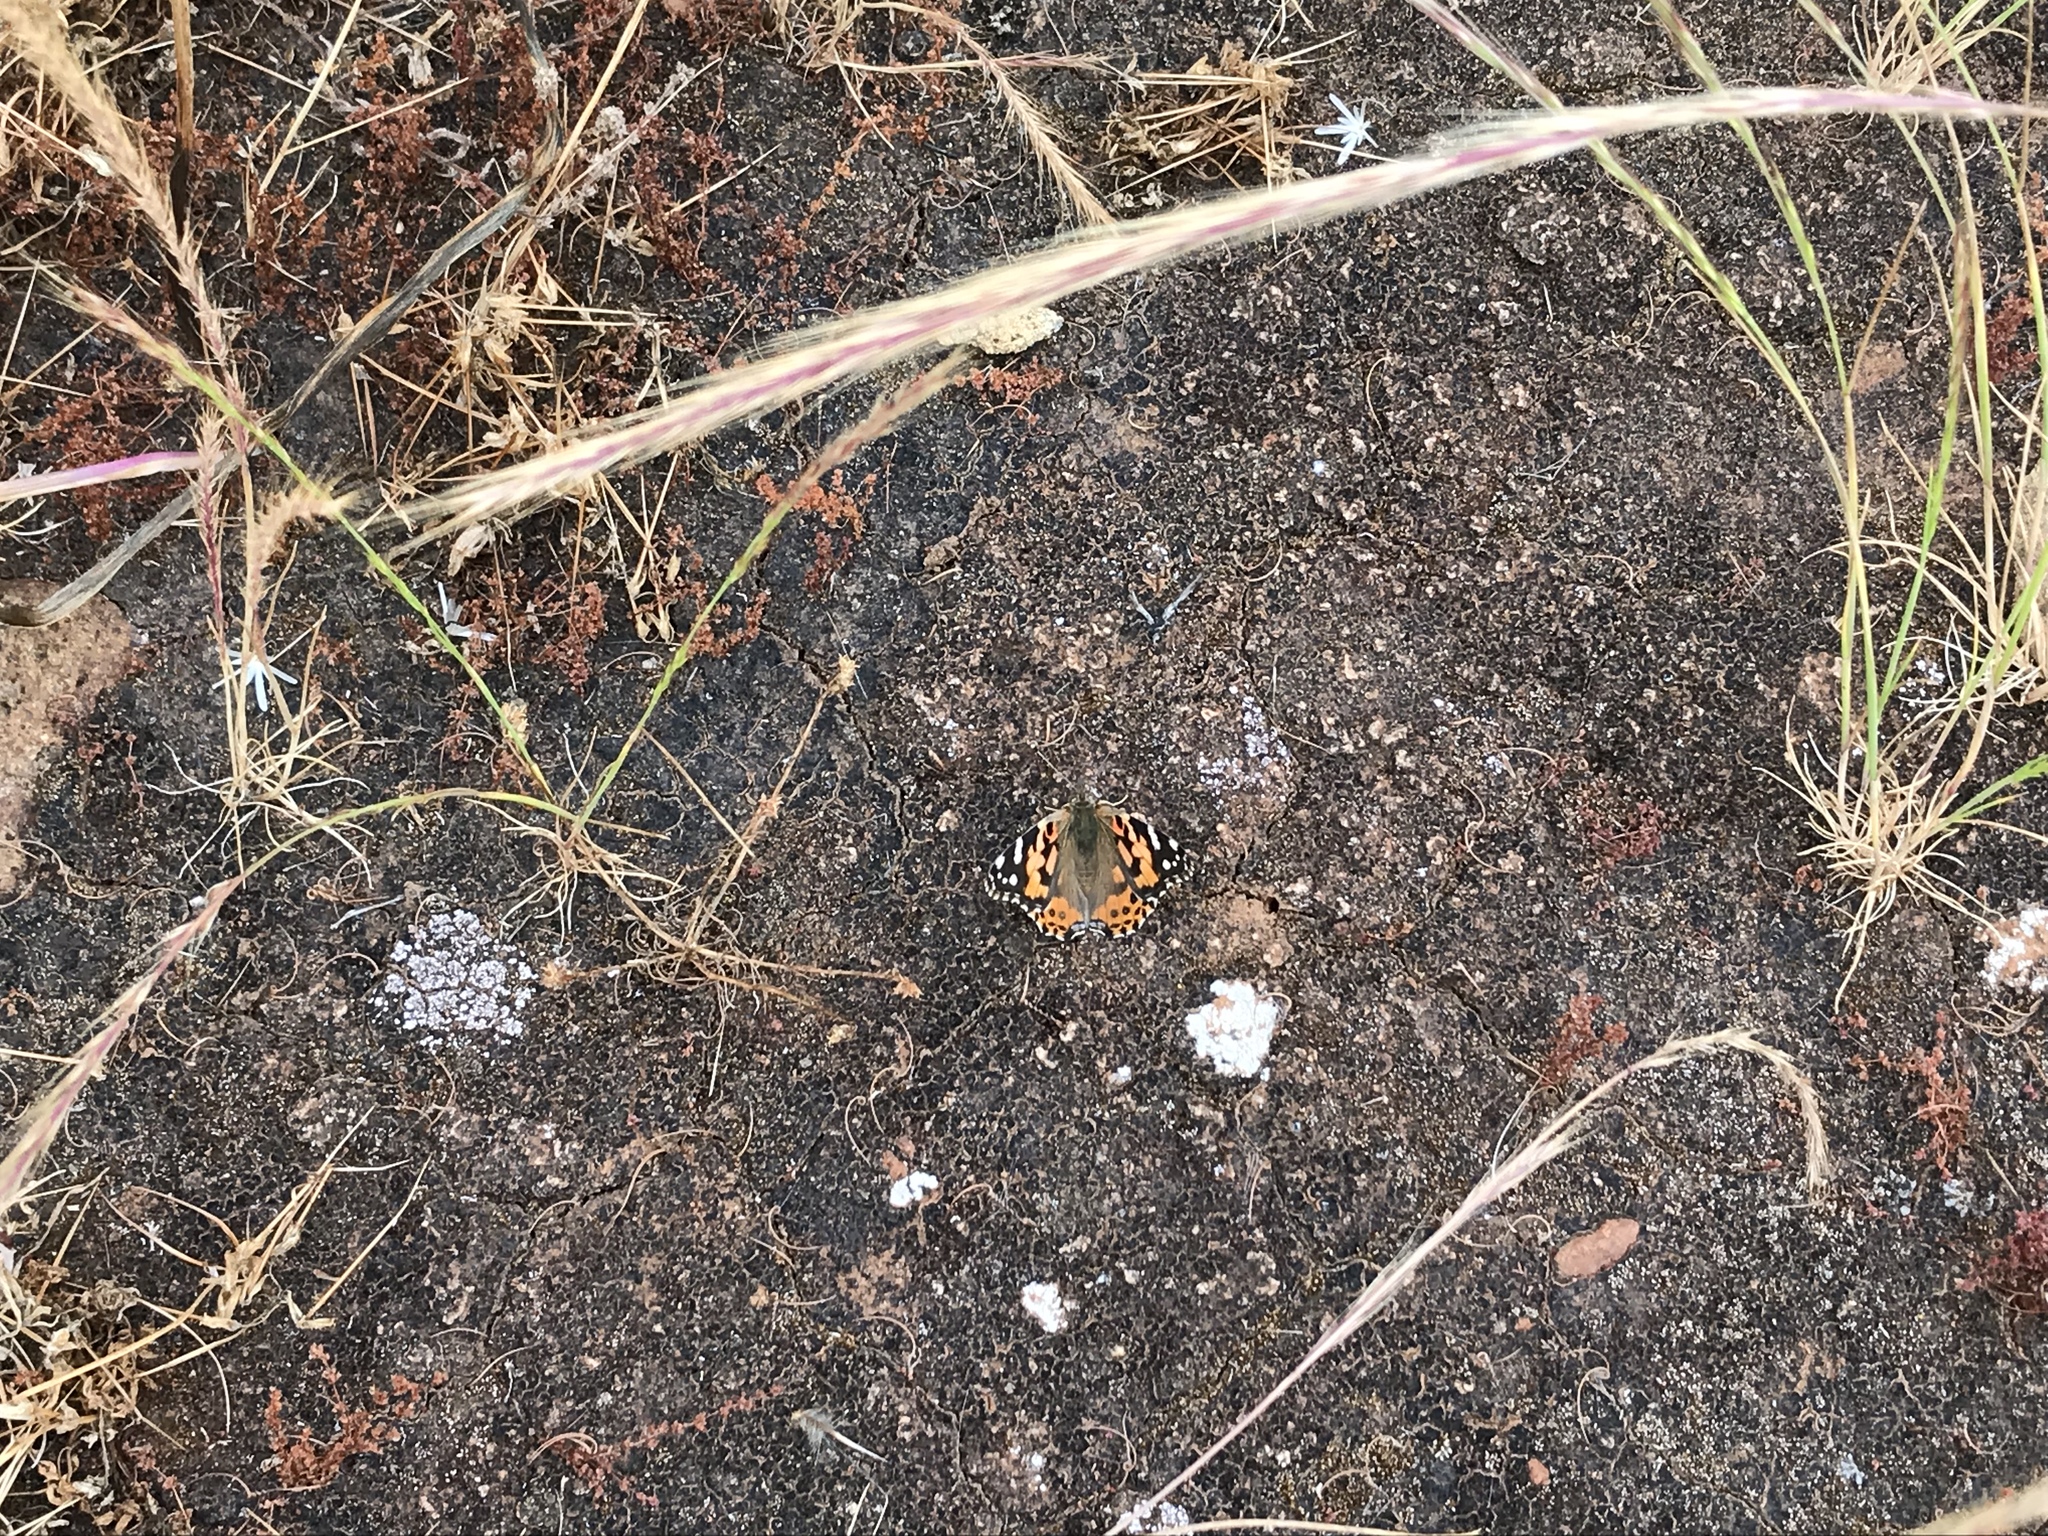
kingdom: Animalia
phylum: Arthropoda
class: Insecta
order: Lepidoptera
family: Nymphalidae
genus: Vanessa
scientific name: Vanessa cardui
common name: Painted lady
